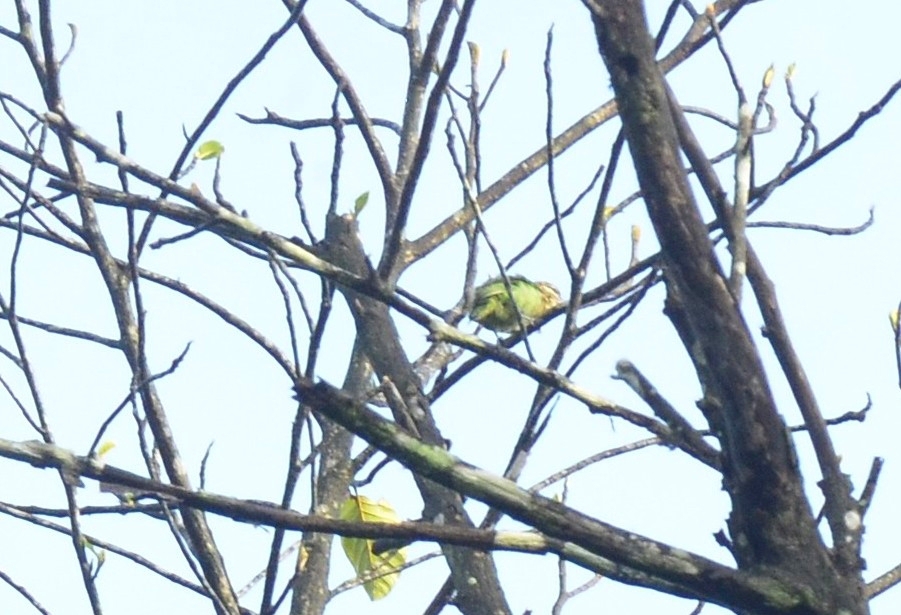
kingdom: Animalia
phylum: Chordata
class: Aves
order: Piciformes
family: Megalaimidae
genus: Psilopogon
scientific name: Psilopogon viridis
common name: White-cheeked barbet
